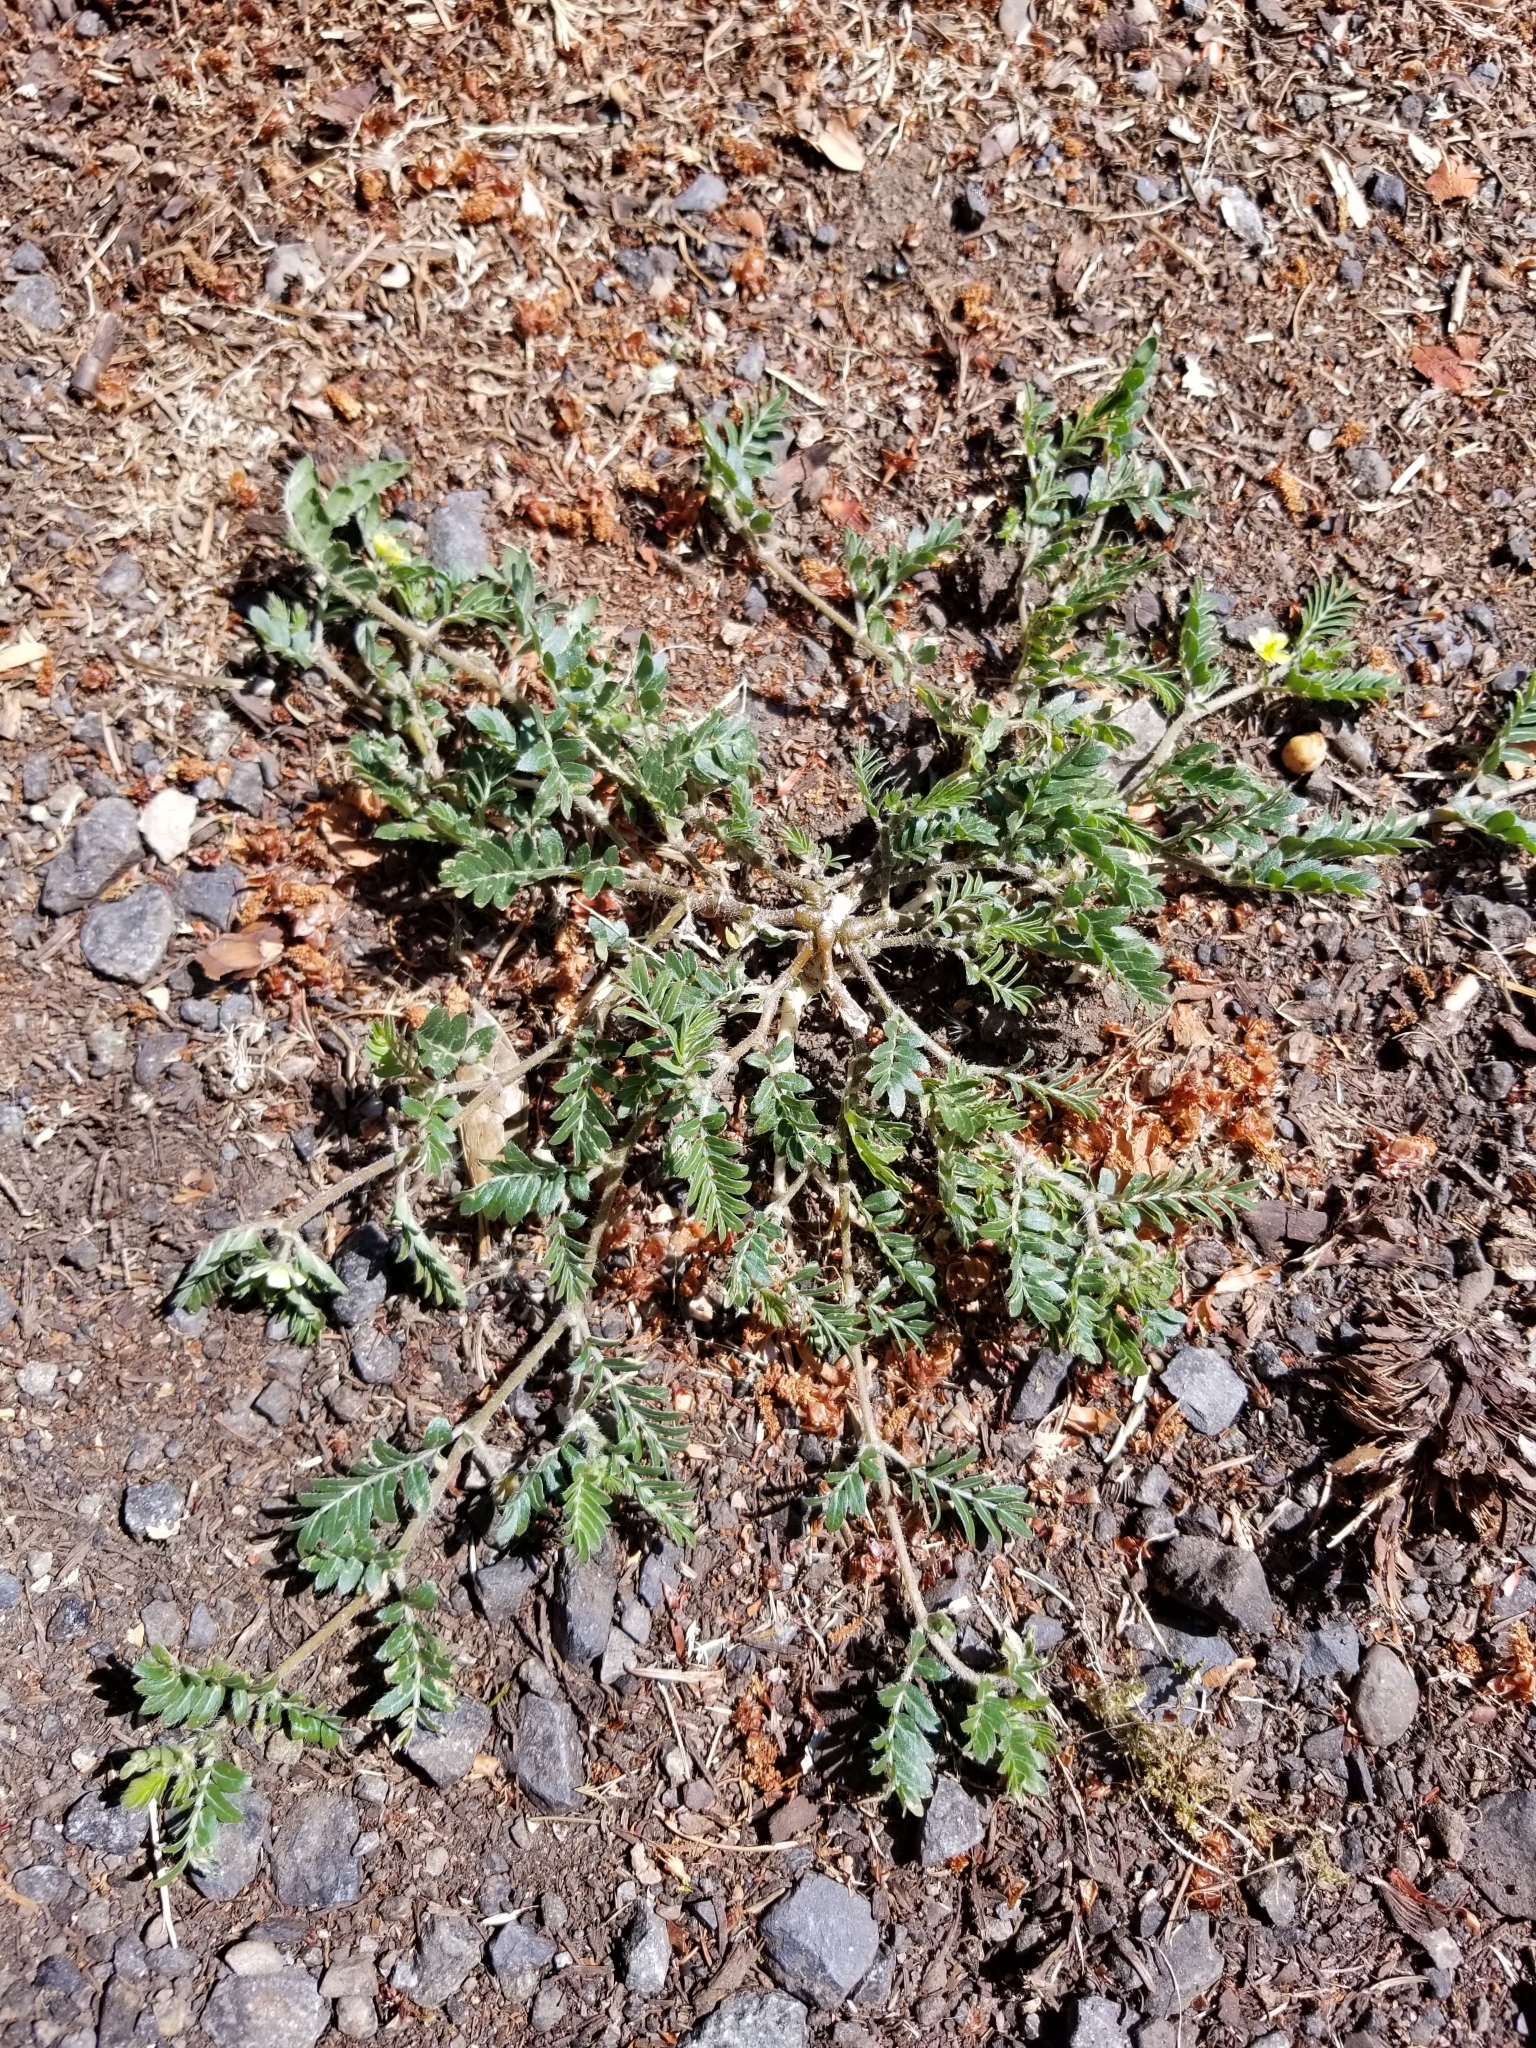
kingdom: Plantae
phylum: Tracheophyta
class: Magnoliopsida
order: Zygophyllales
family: Zygophyllaceae
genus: Tribulus
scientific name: Tribulus terrestris
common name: Puncturevine
